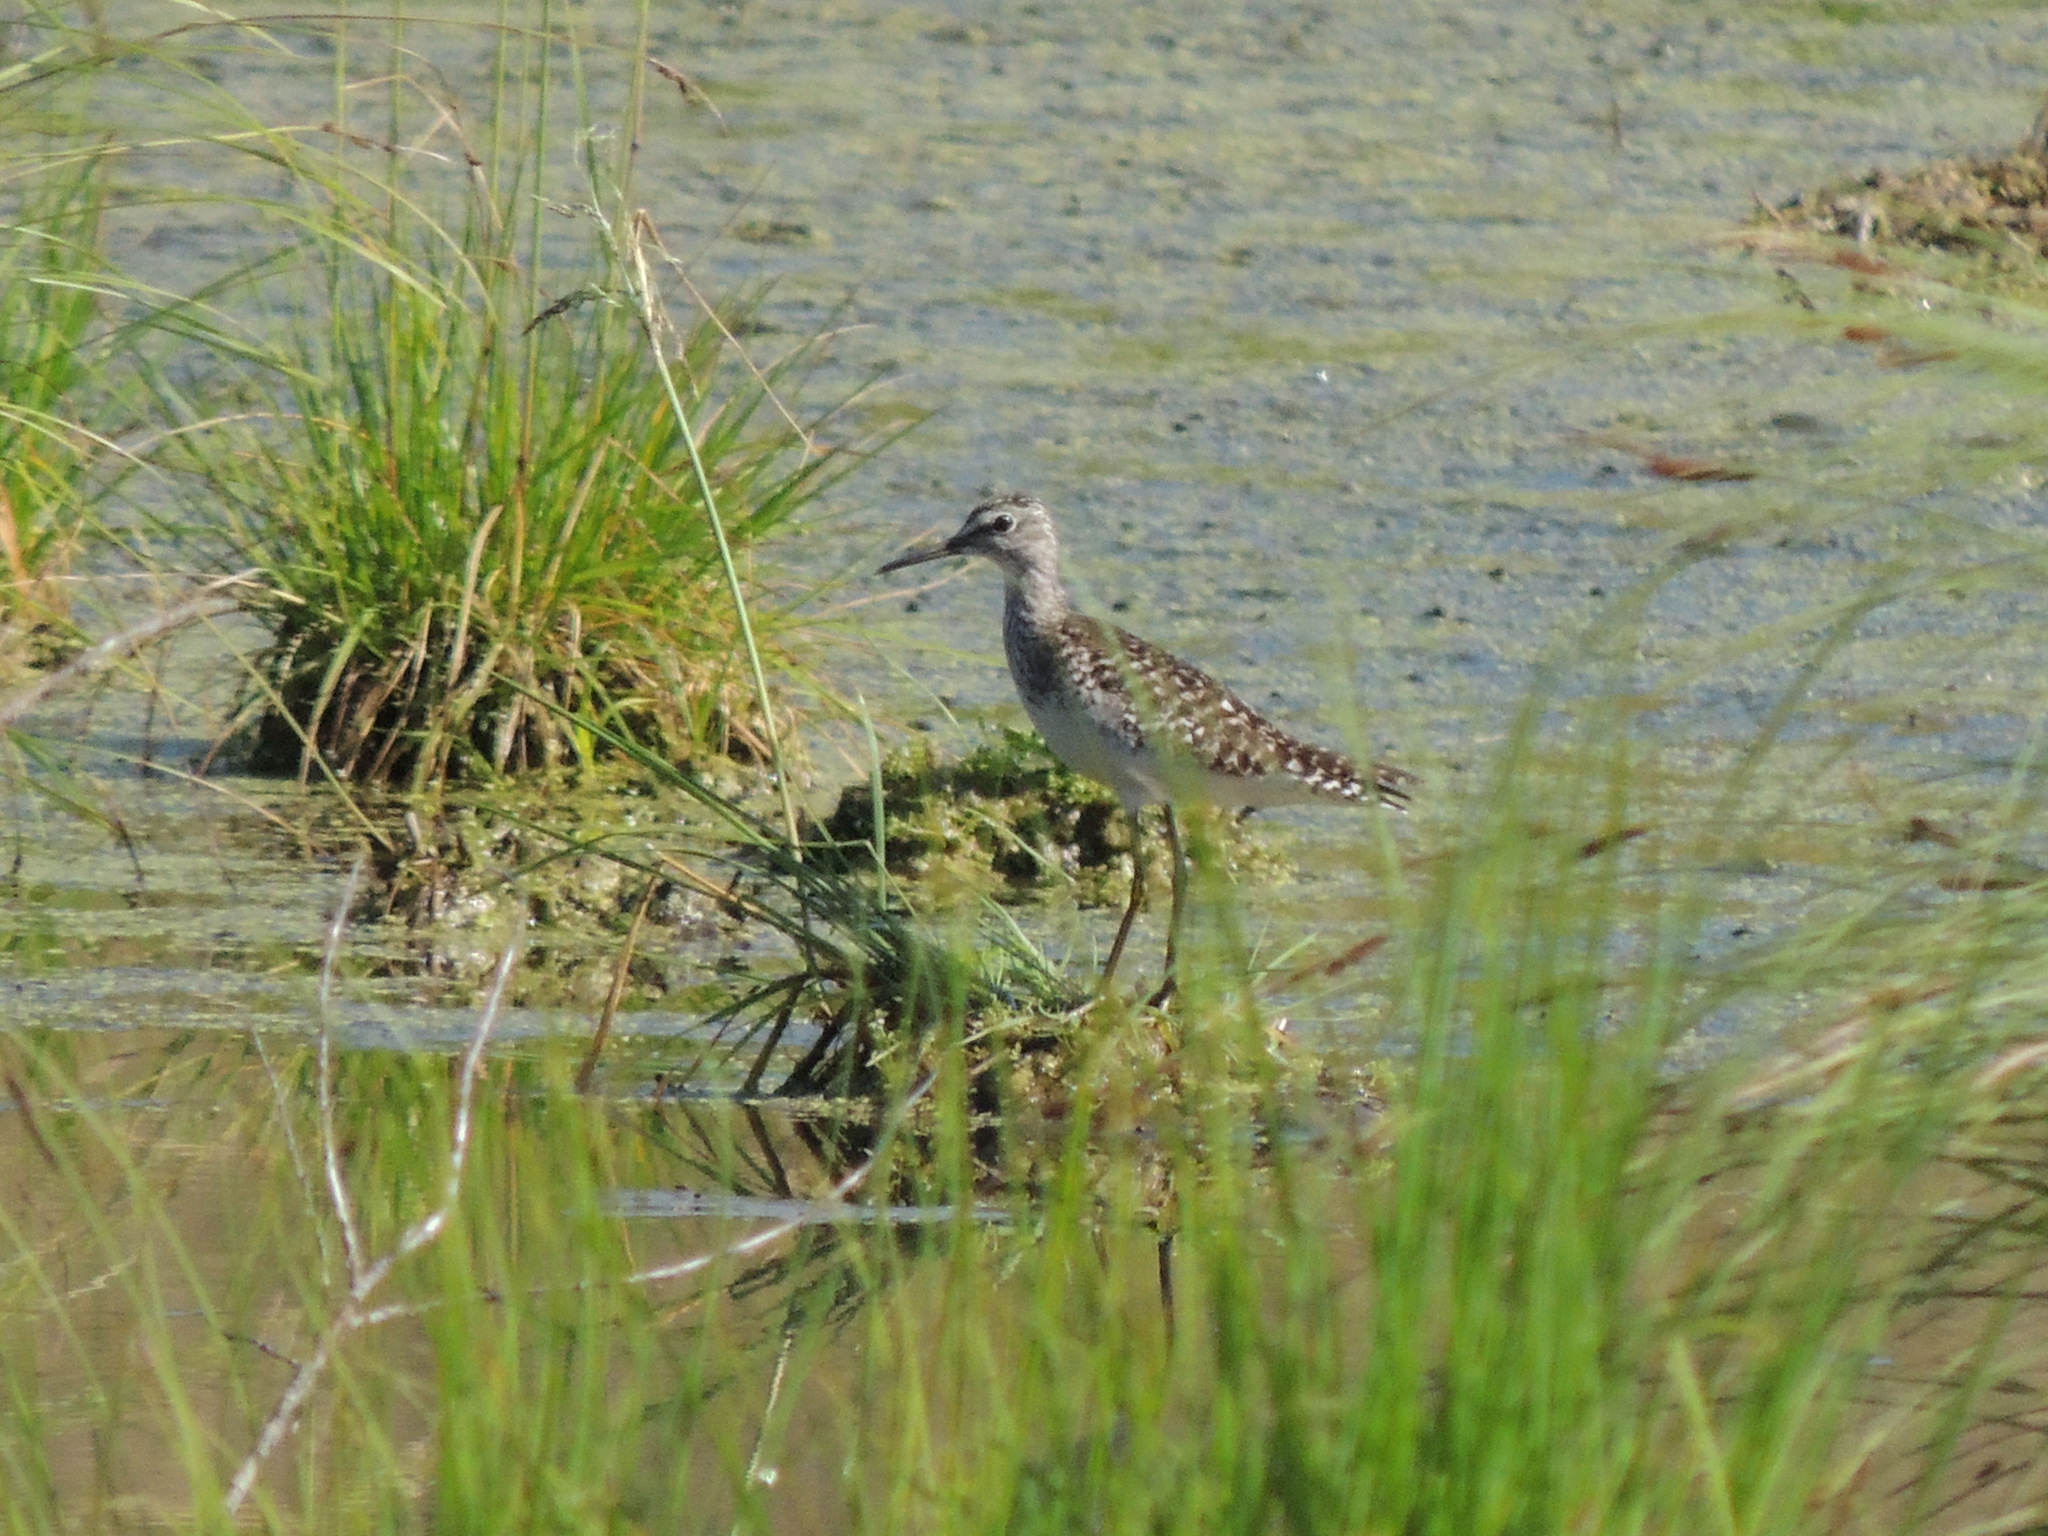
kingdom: Animalia
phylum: Chordata
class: Aves
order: Charadriiformes
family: Scolopacidae
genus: Tringa
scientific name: Tringa glareola
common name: Wood sandpiper
